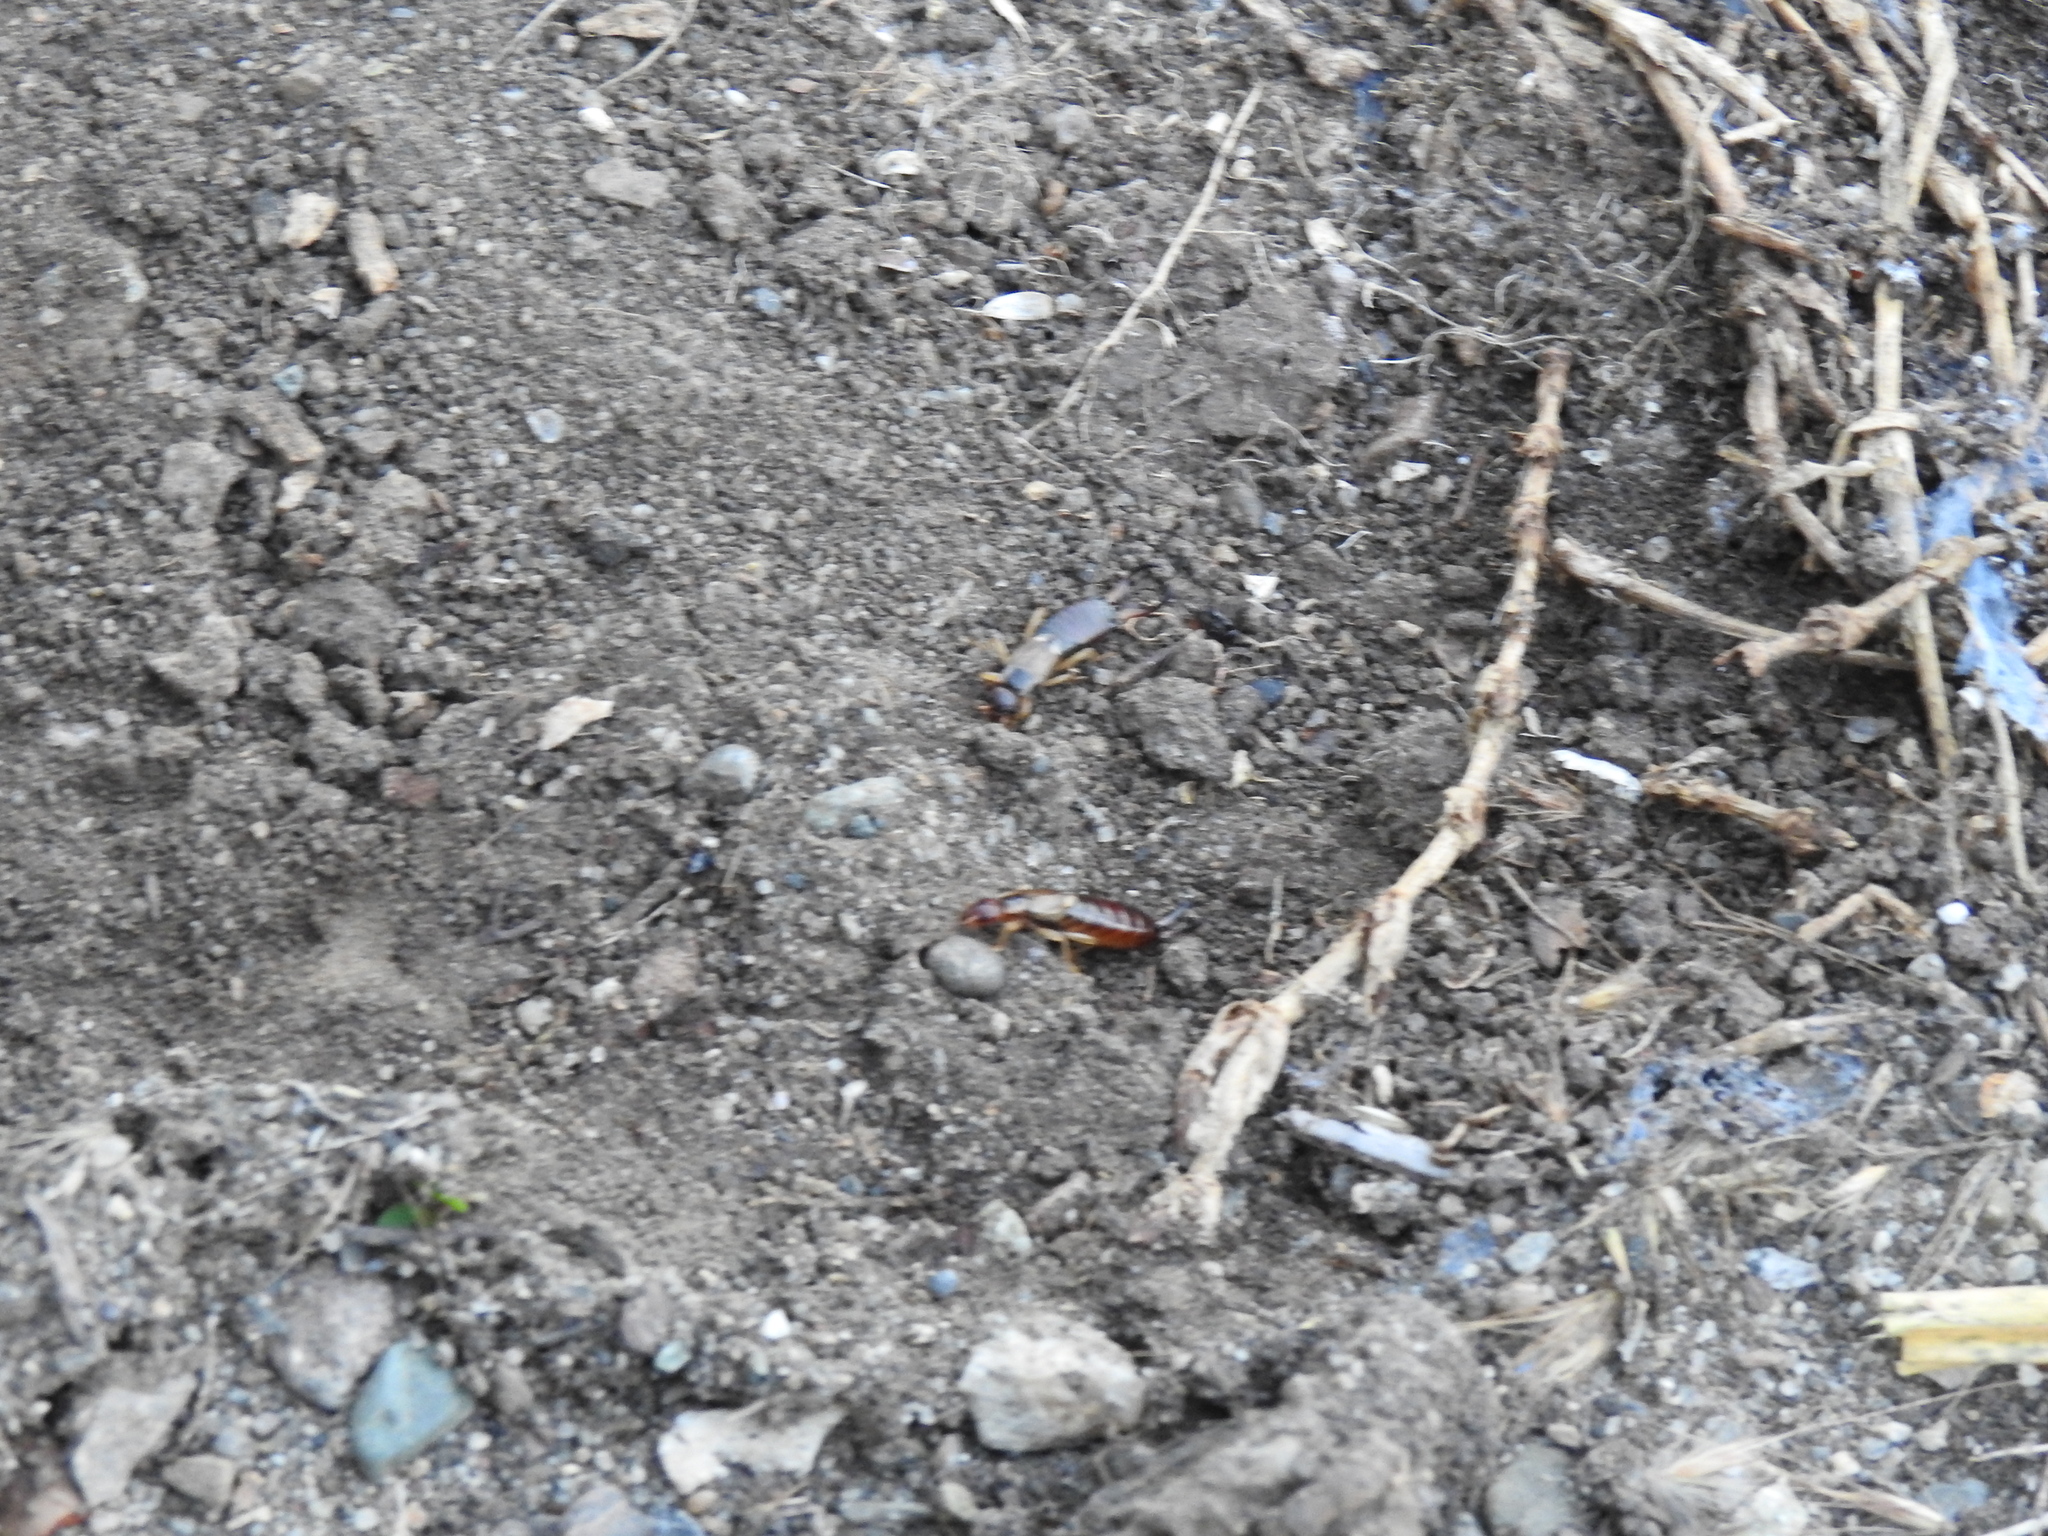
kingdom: Animalia
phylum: Arthropoda
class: Insecta
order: Dermaptera
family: Forficulidae
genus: Forficula
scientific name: Forficula
